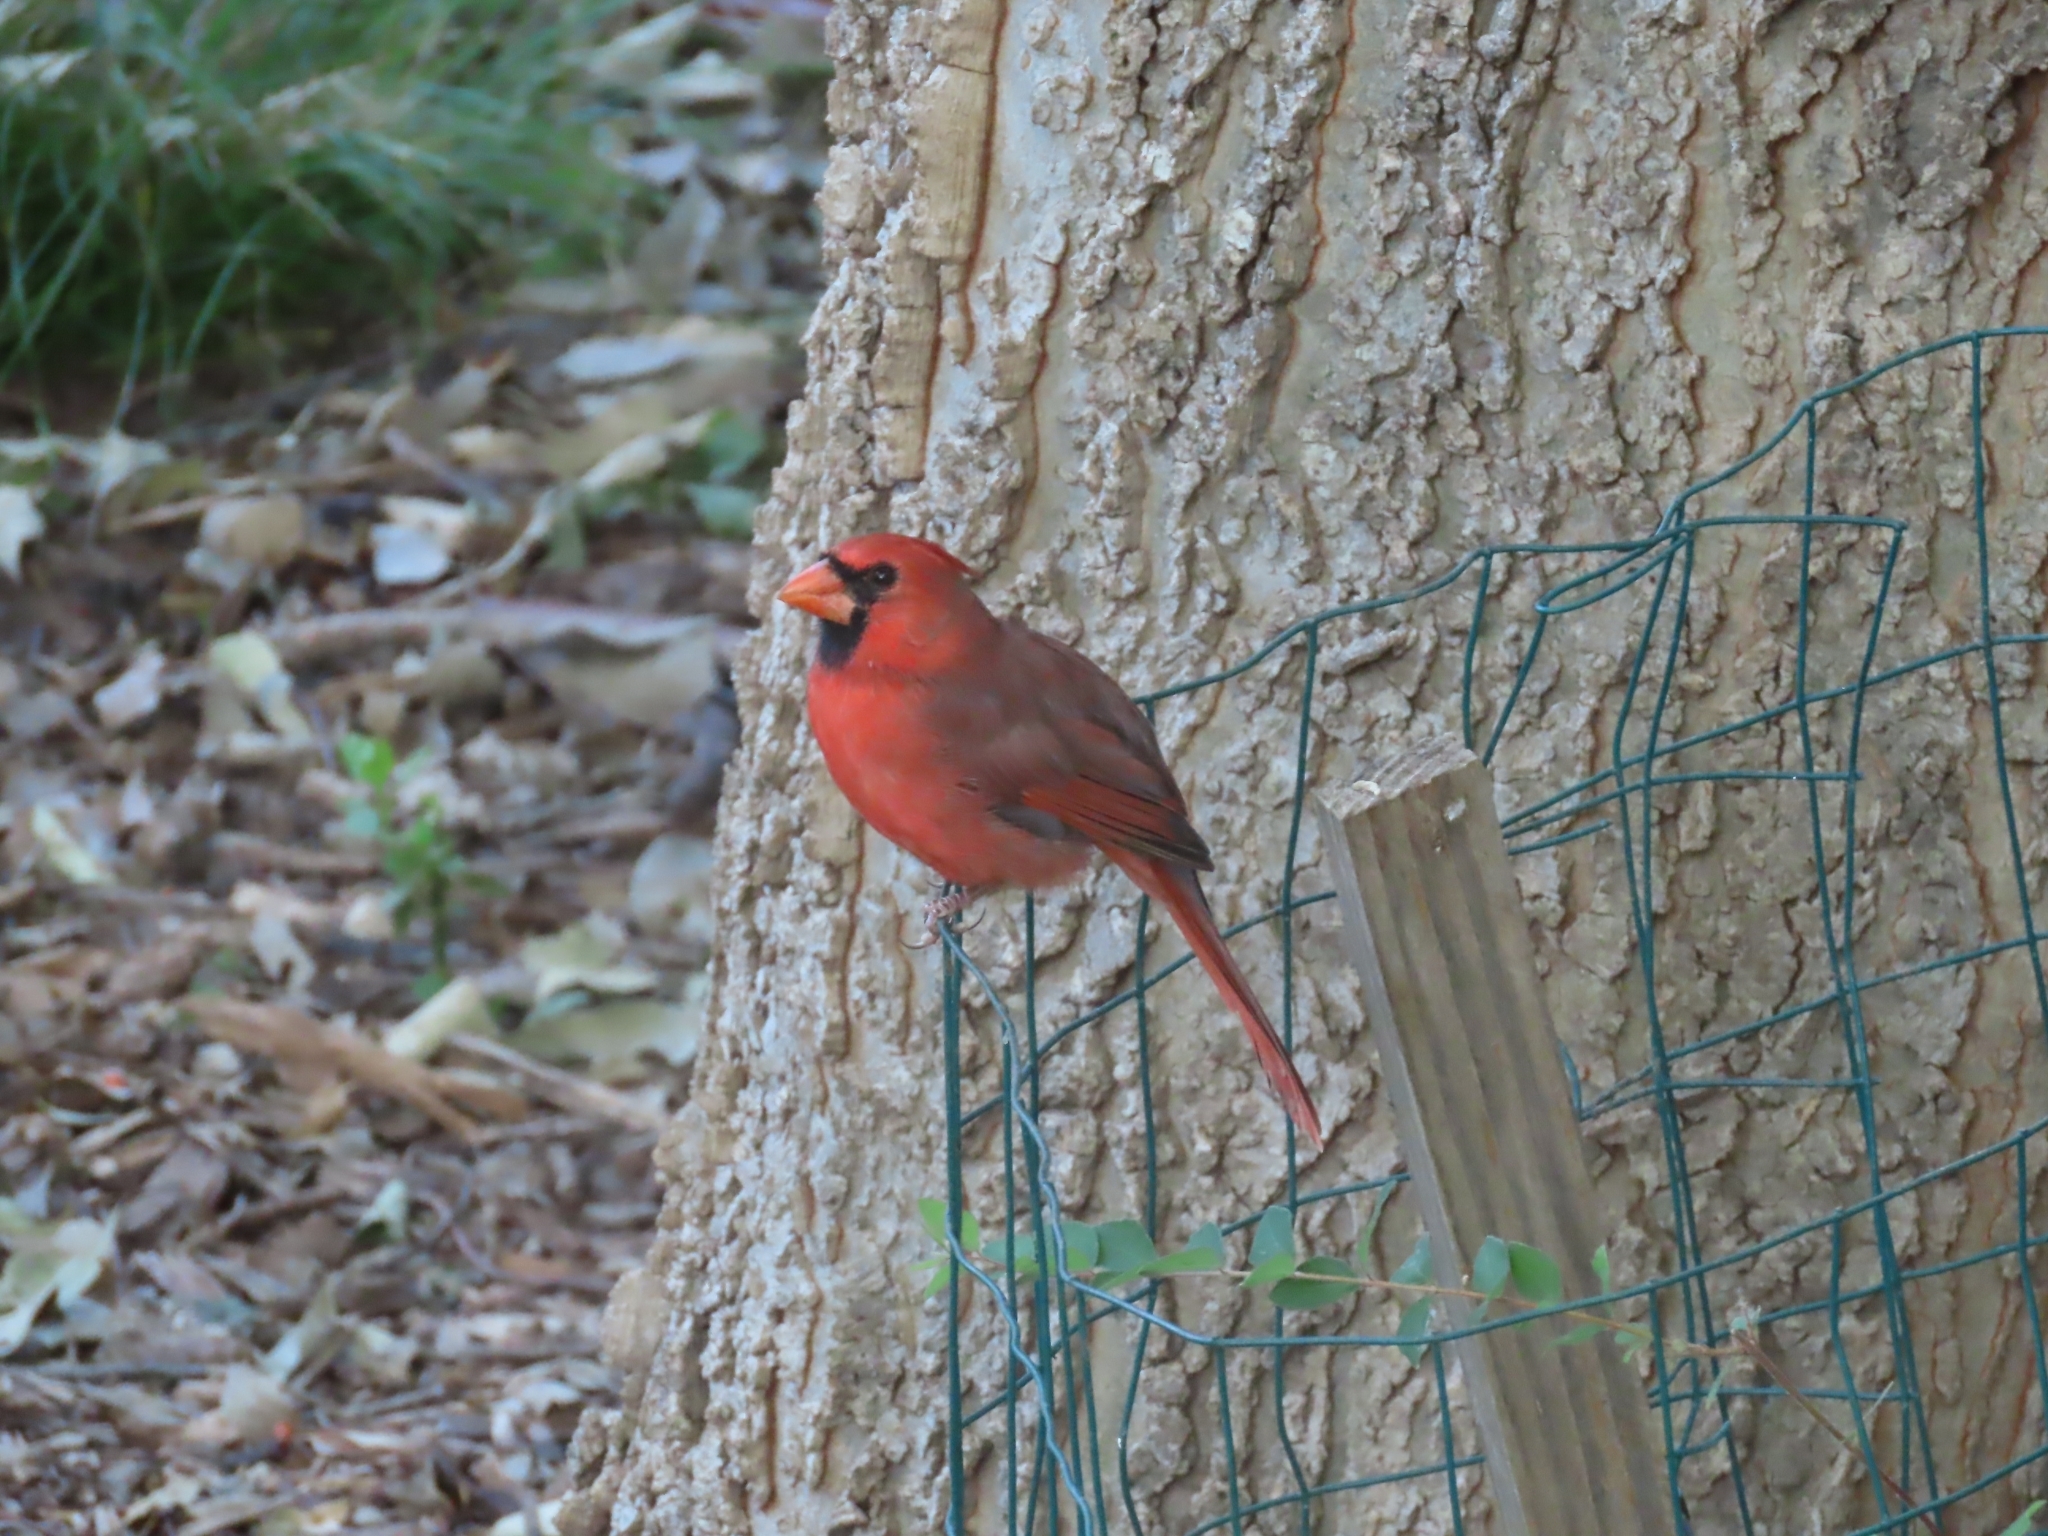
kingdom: Animalia
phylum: Chordata
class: Aves
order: Passeriformes
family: Cardinalidae
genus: Cardinalis
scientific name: Cardinalis cardinalis
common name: Northern cardinal
